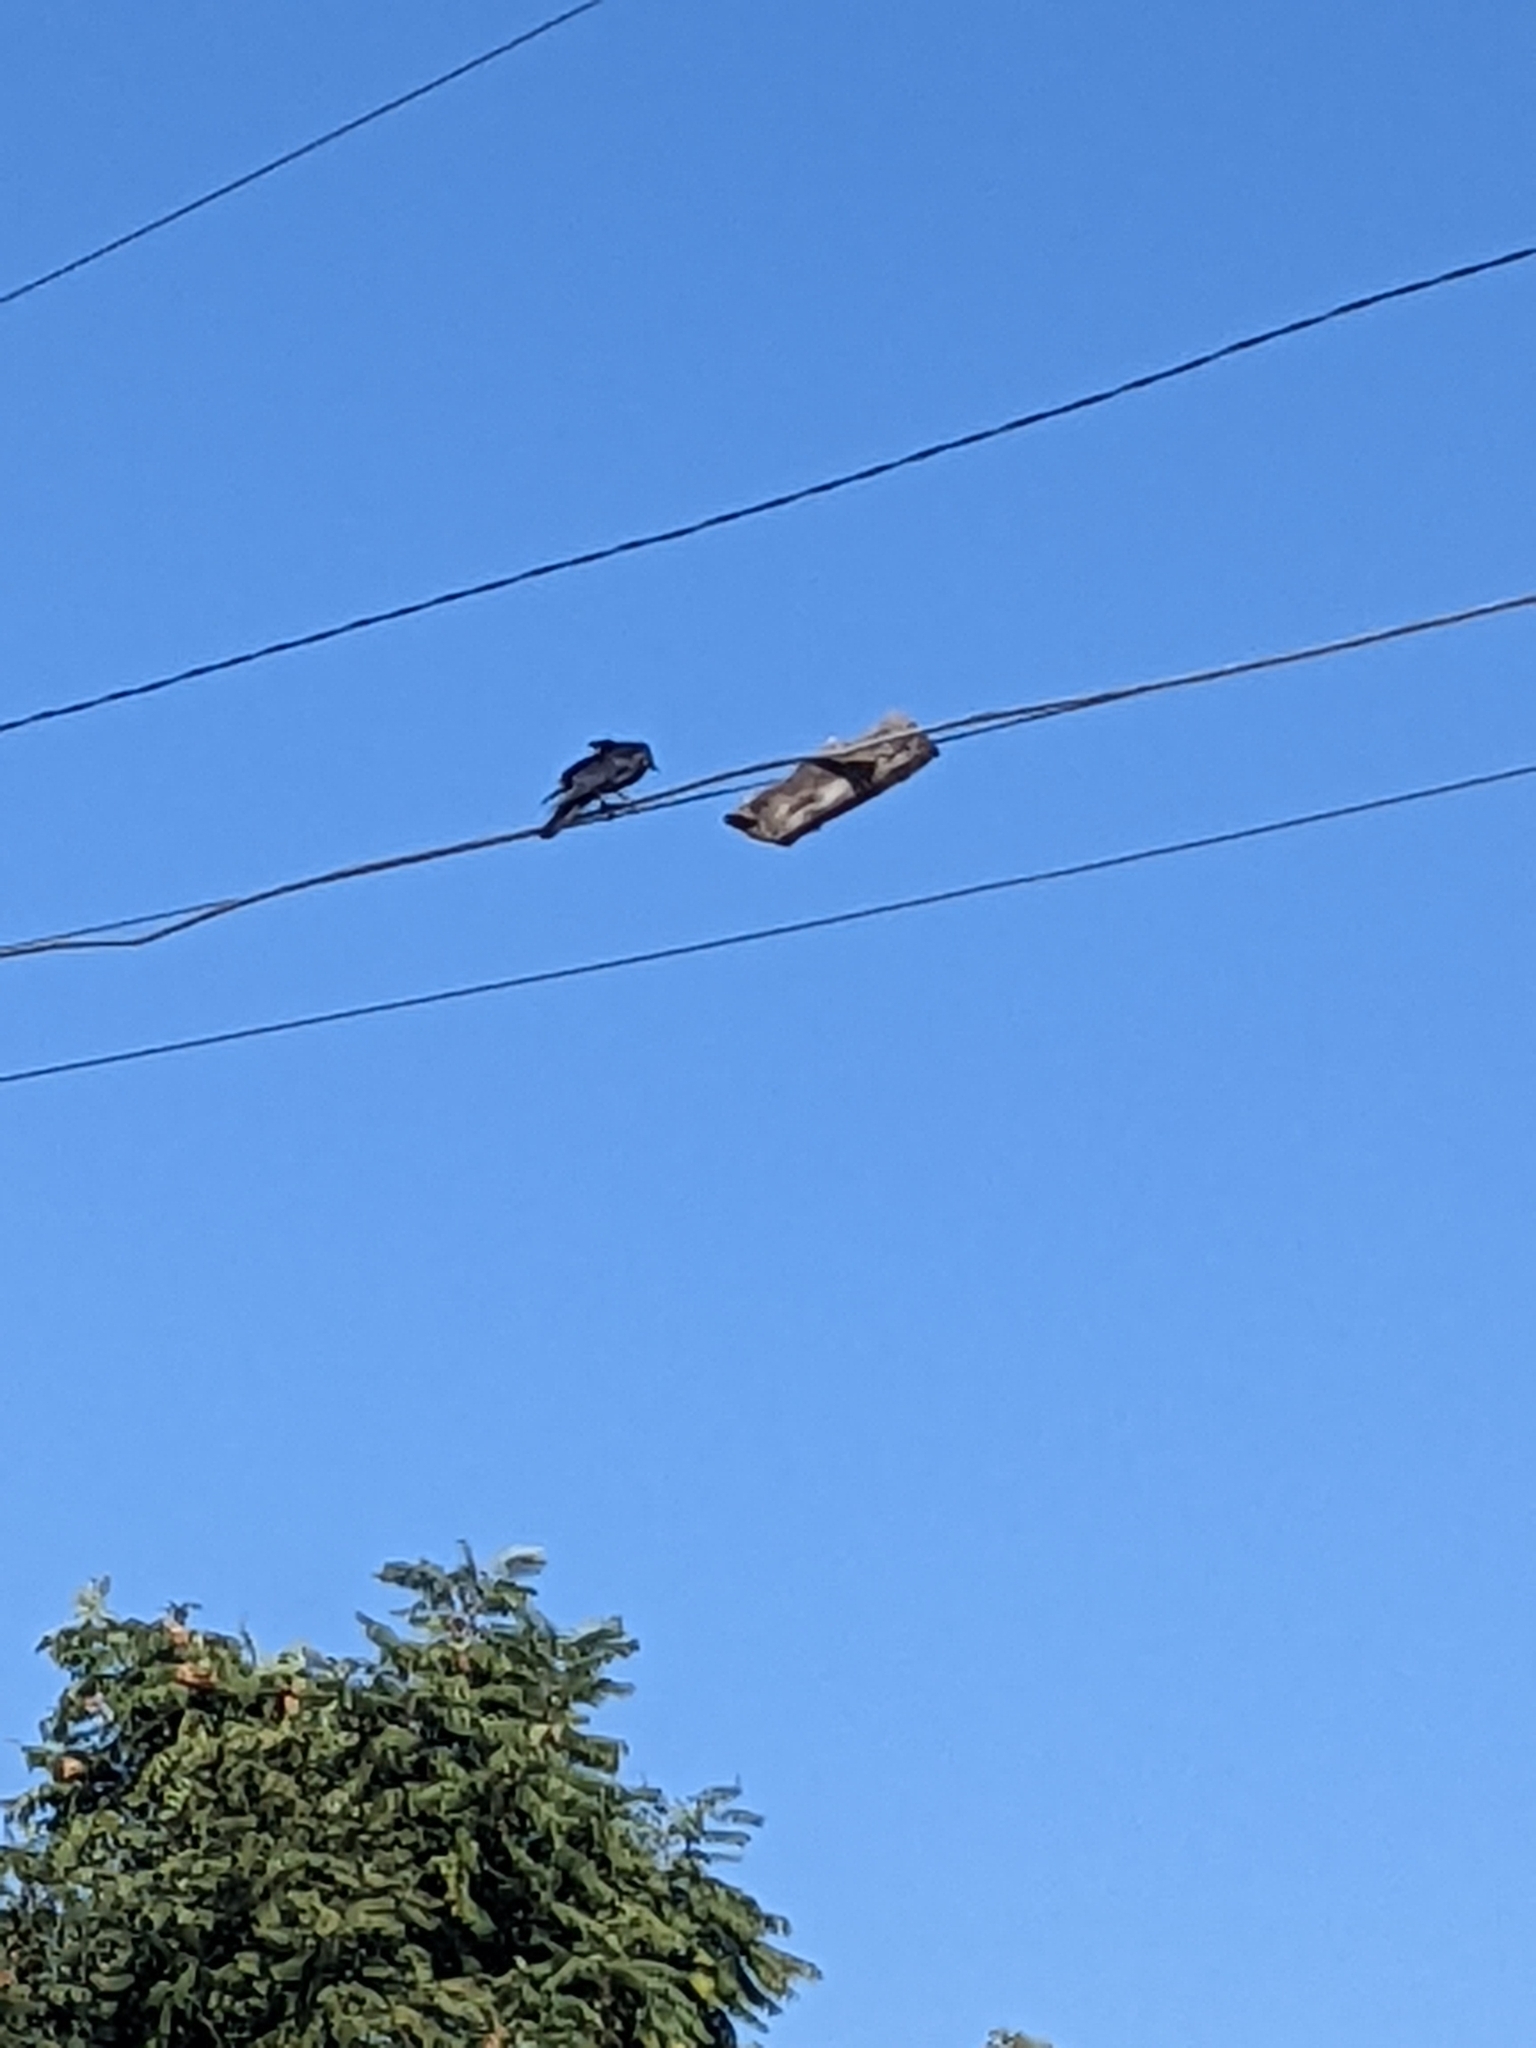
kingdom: Animalia
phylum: Chordata
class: Aves
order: Passeriformes
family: Corvidae
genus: Corvus
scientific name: Corvus brachyrhynchos
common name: American crow
